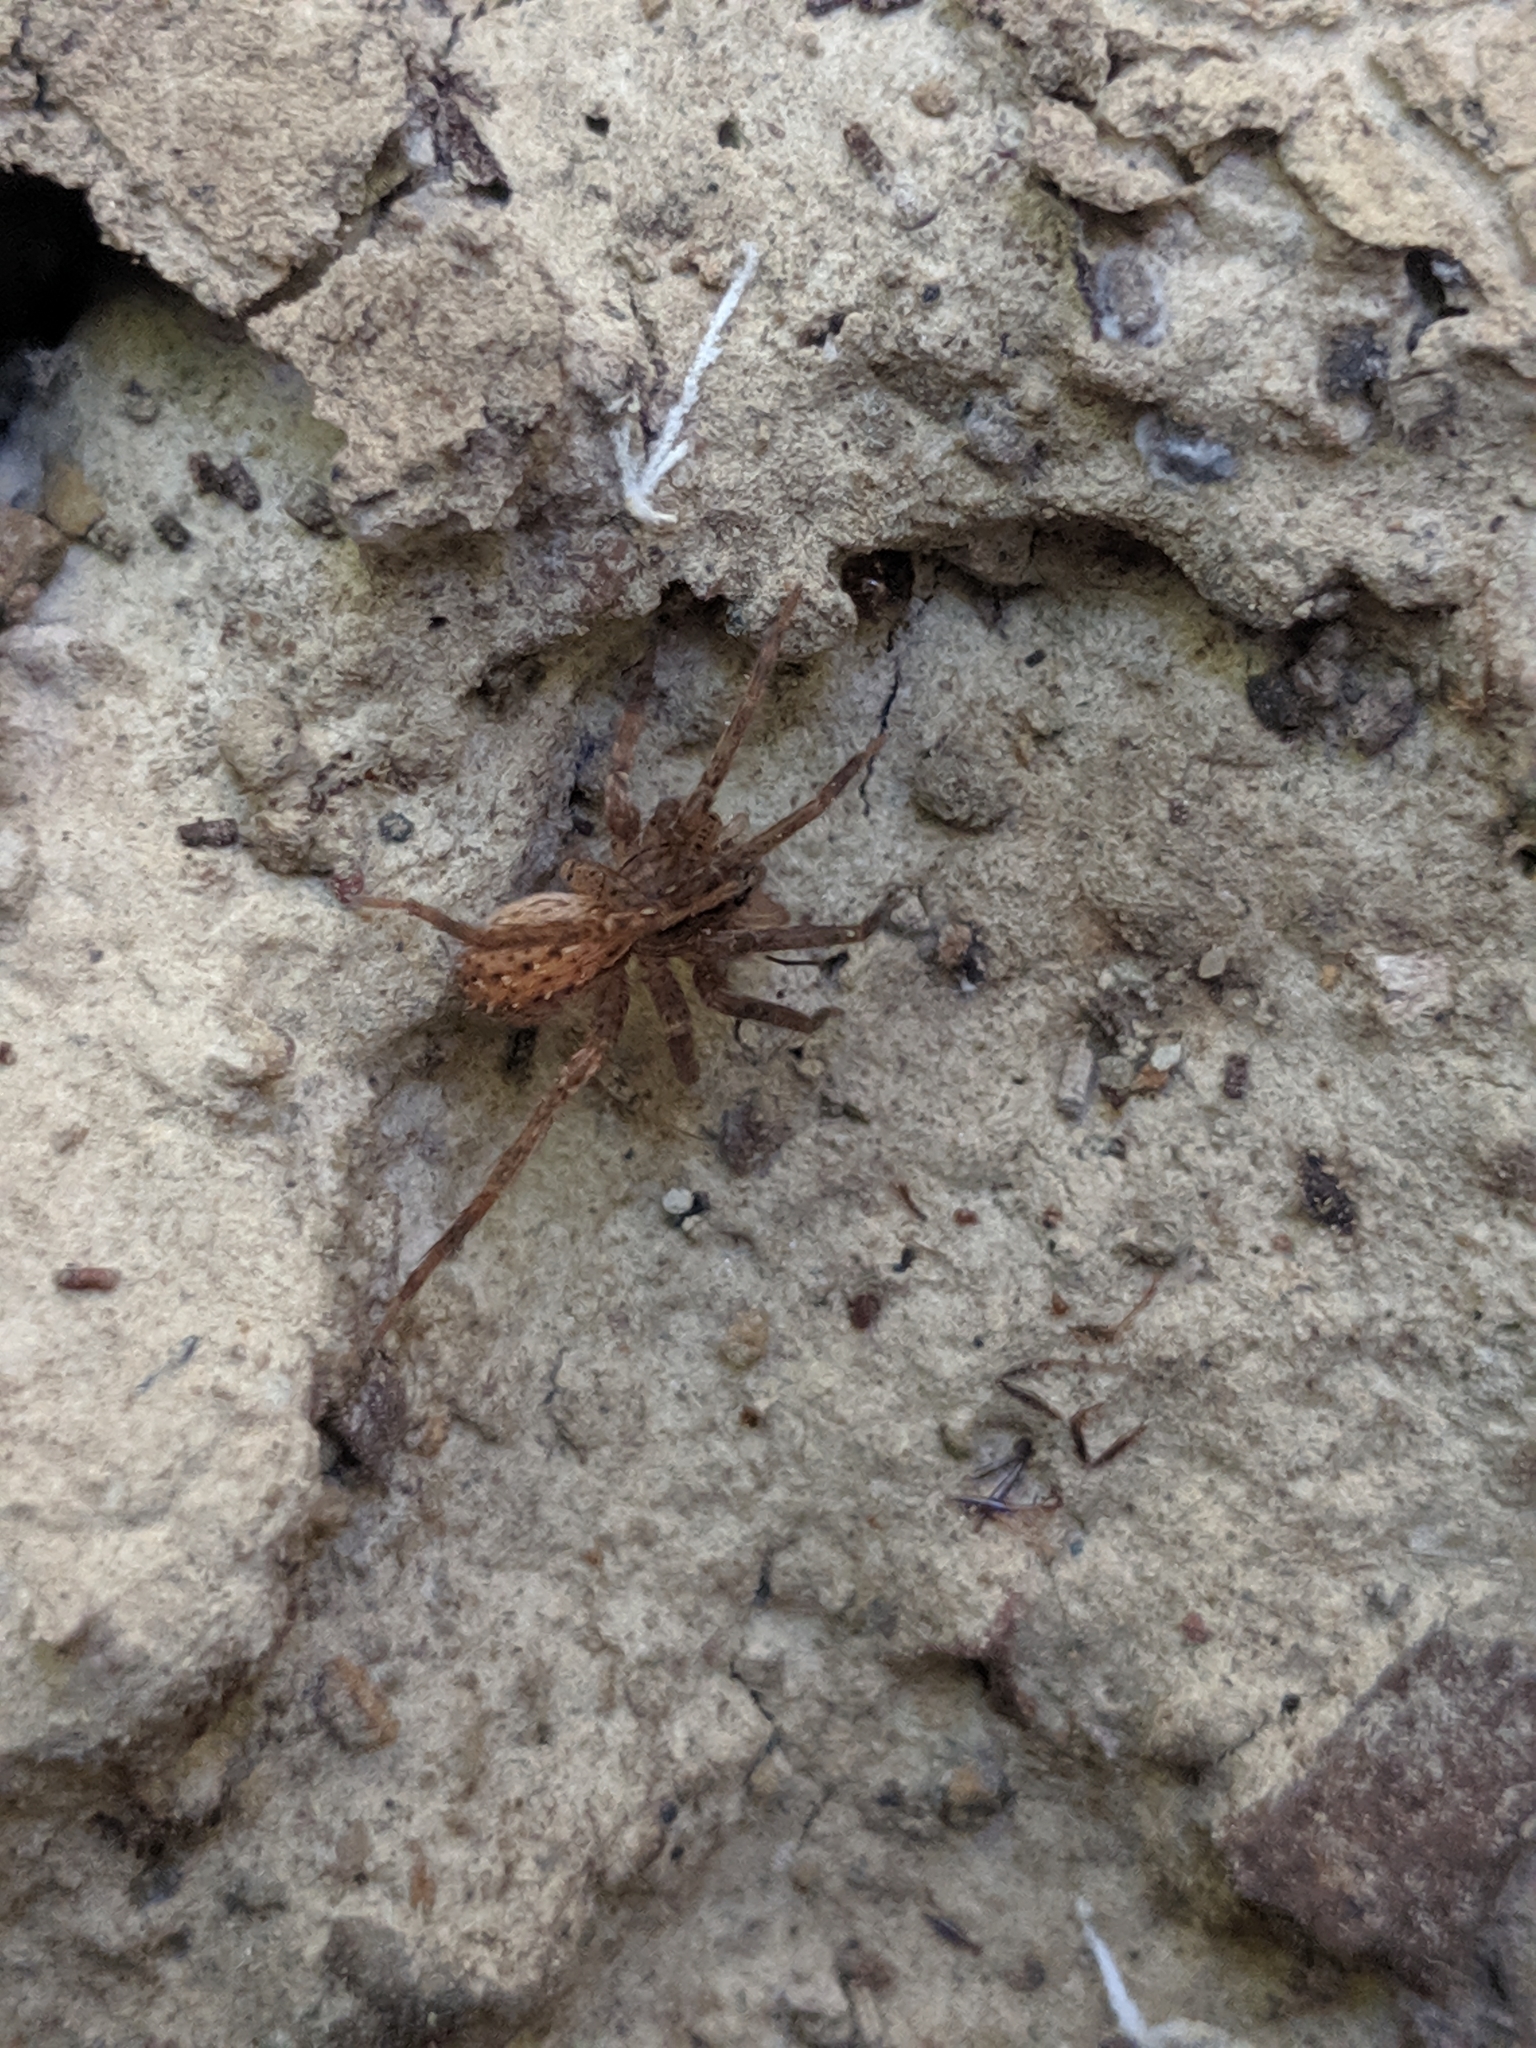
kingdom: Animalia
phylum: Arthropoda
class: Arachnida
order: Araneae
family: Ctenidae
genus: Anahita
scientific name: Anahita punctulata
